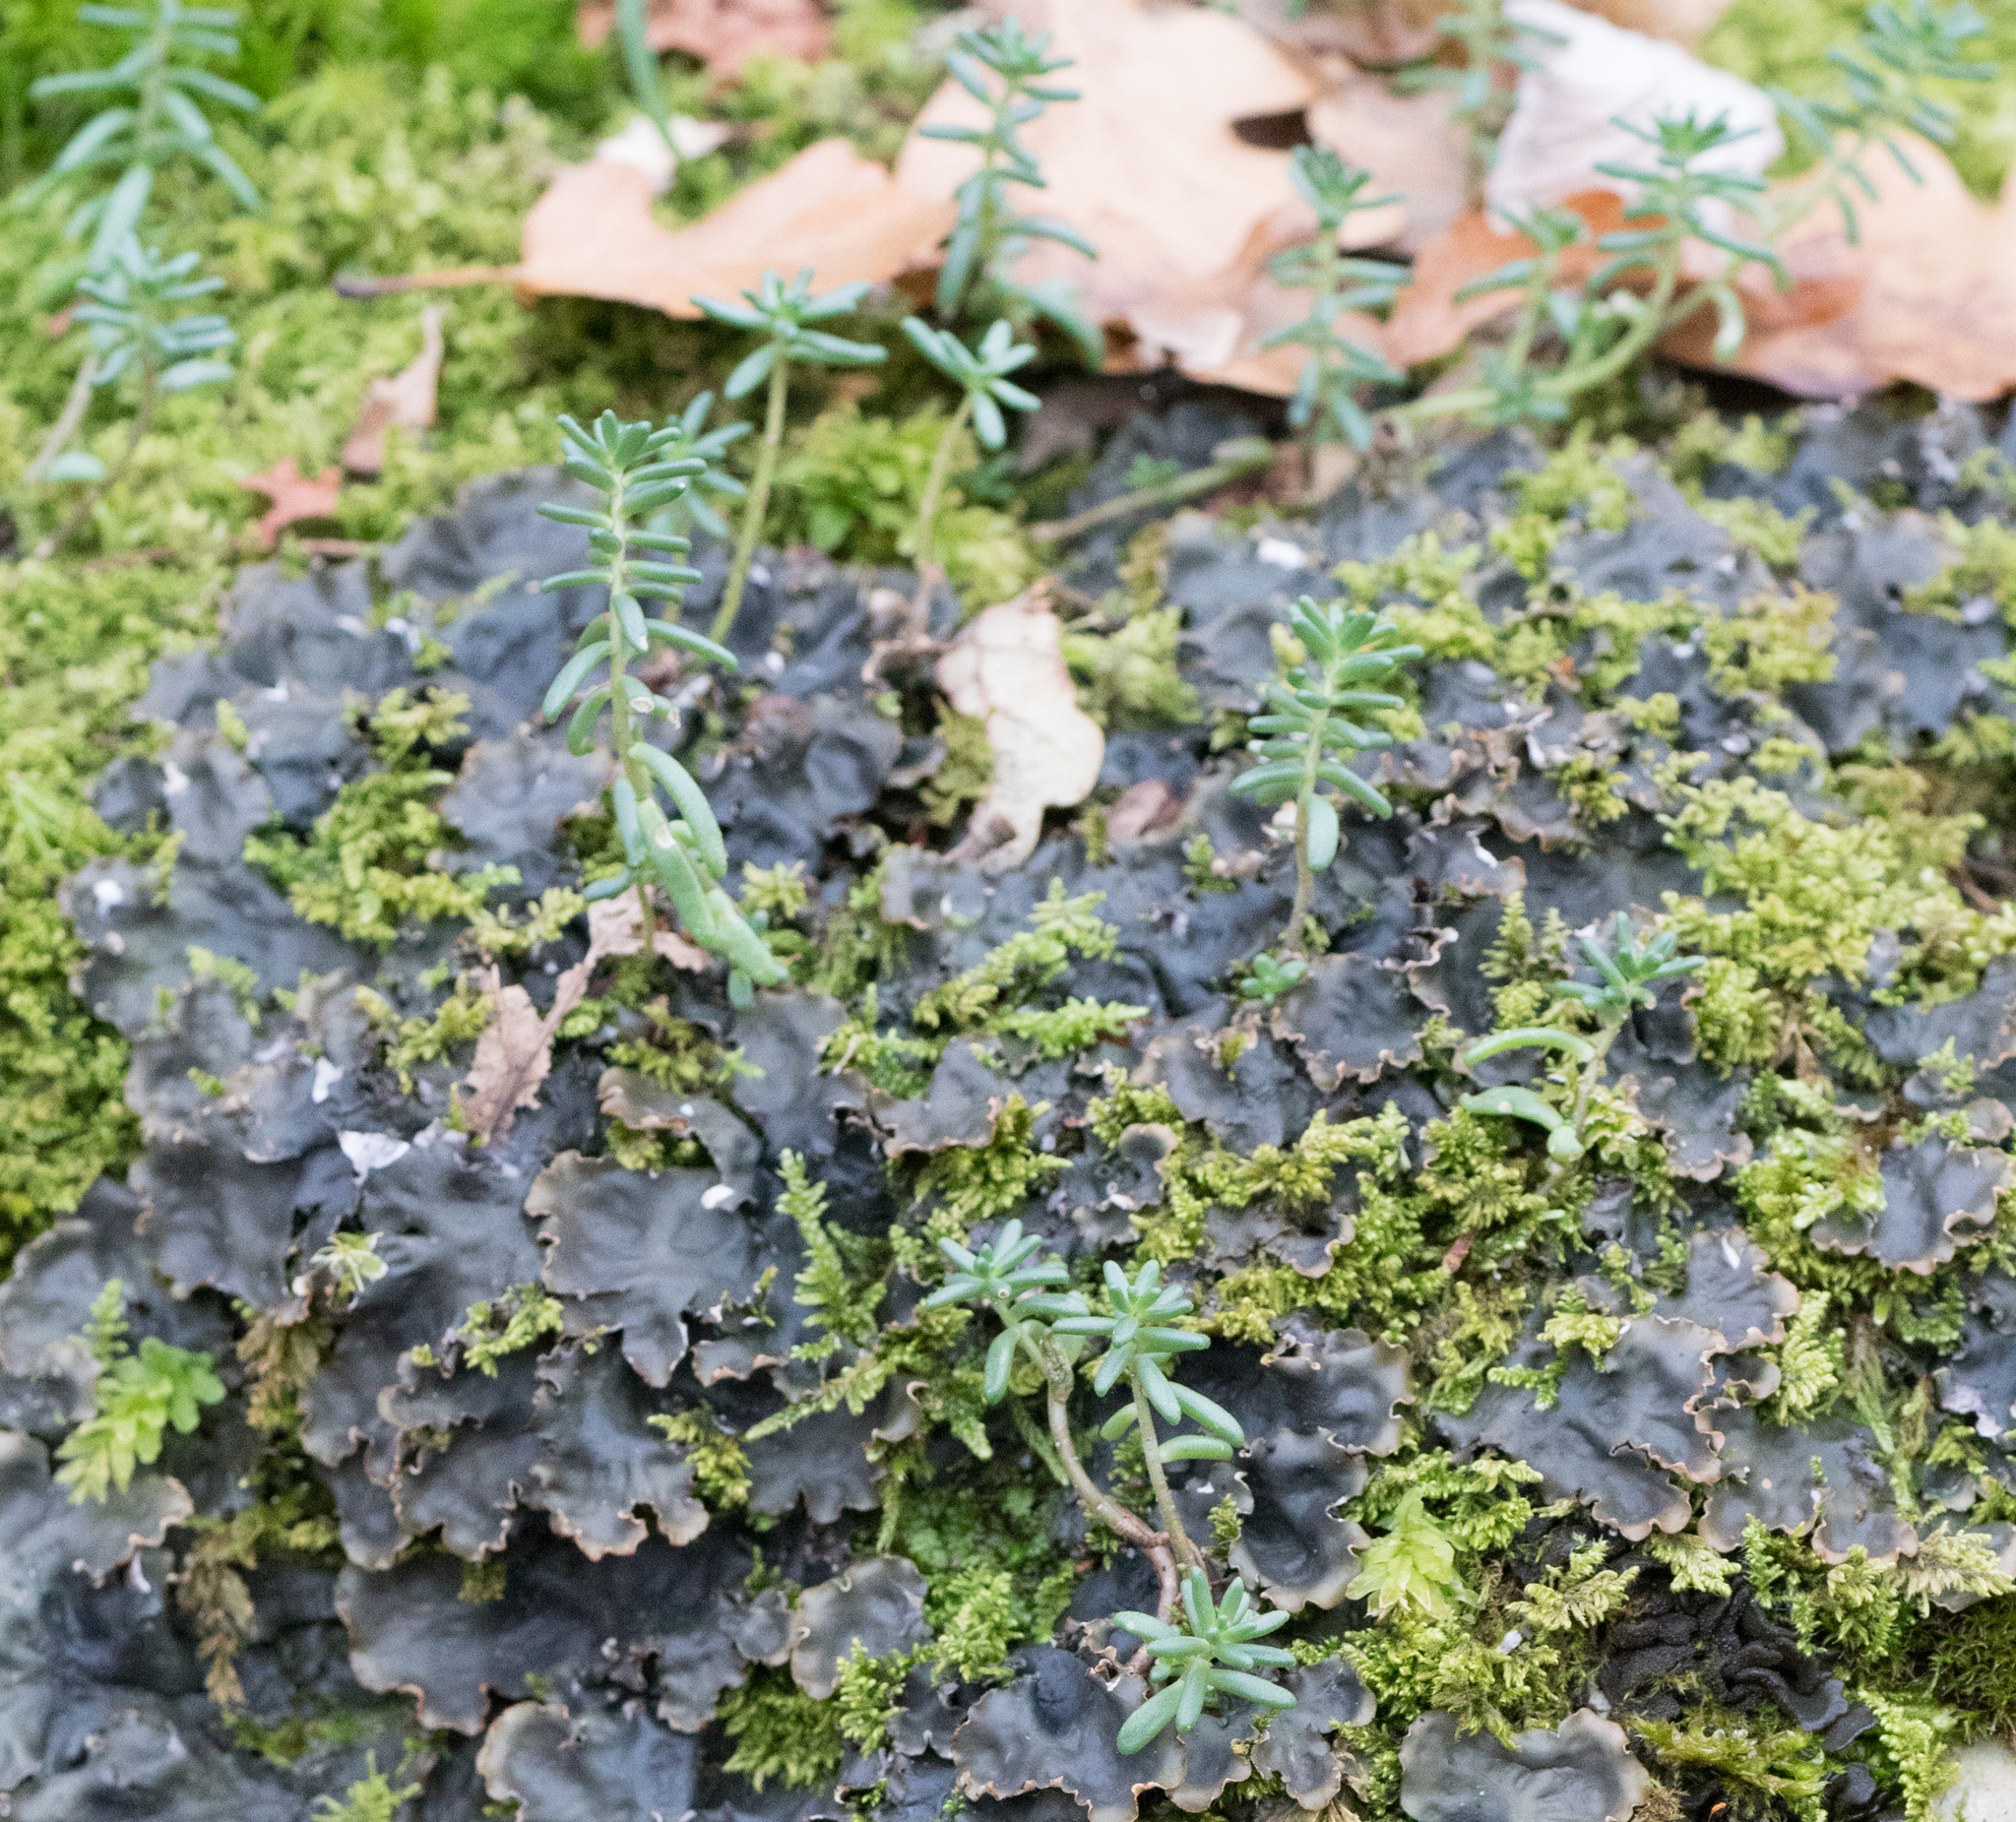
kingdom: Plantae
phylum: Tracheophyta
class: Magnoliopsida
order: Saxifragales
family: Crassulaceae
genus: Sedum
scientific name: Sedum album
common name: White stonecrop
